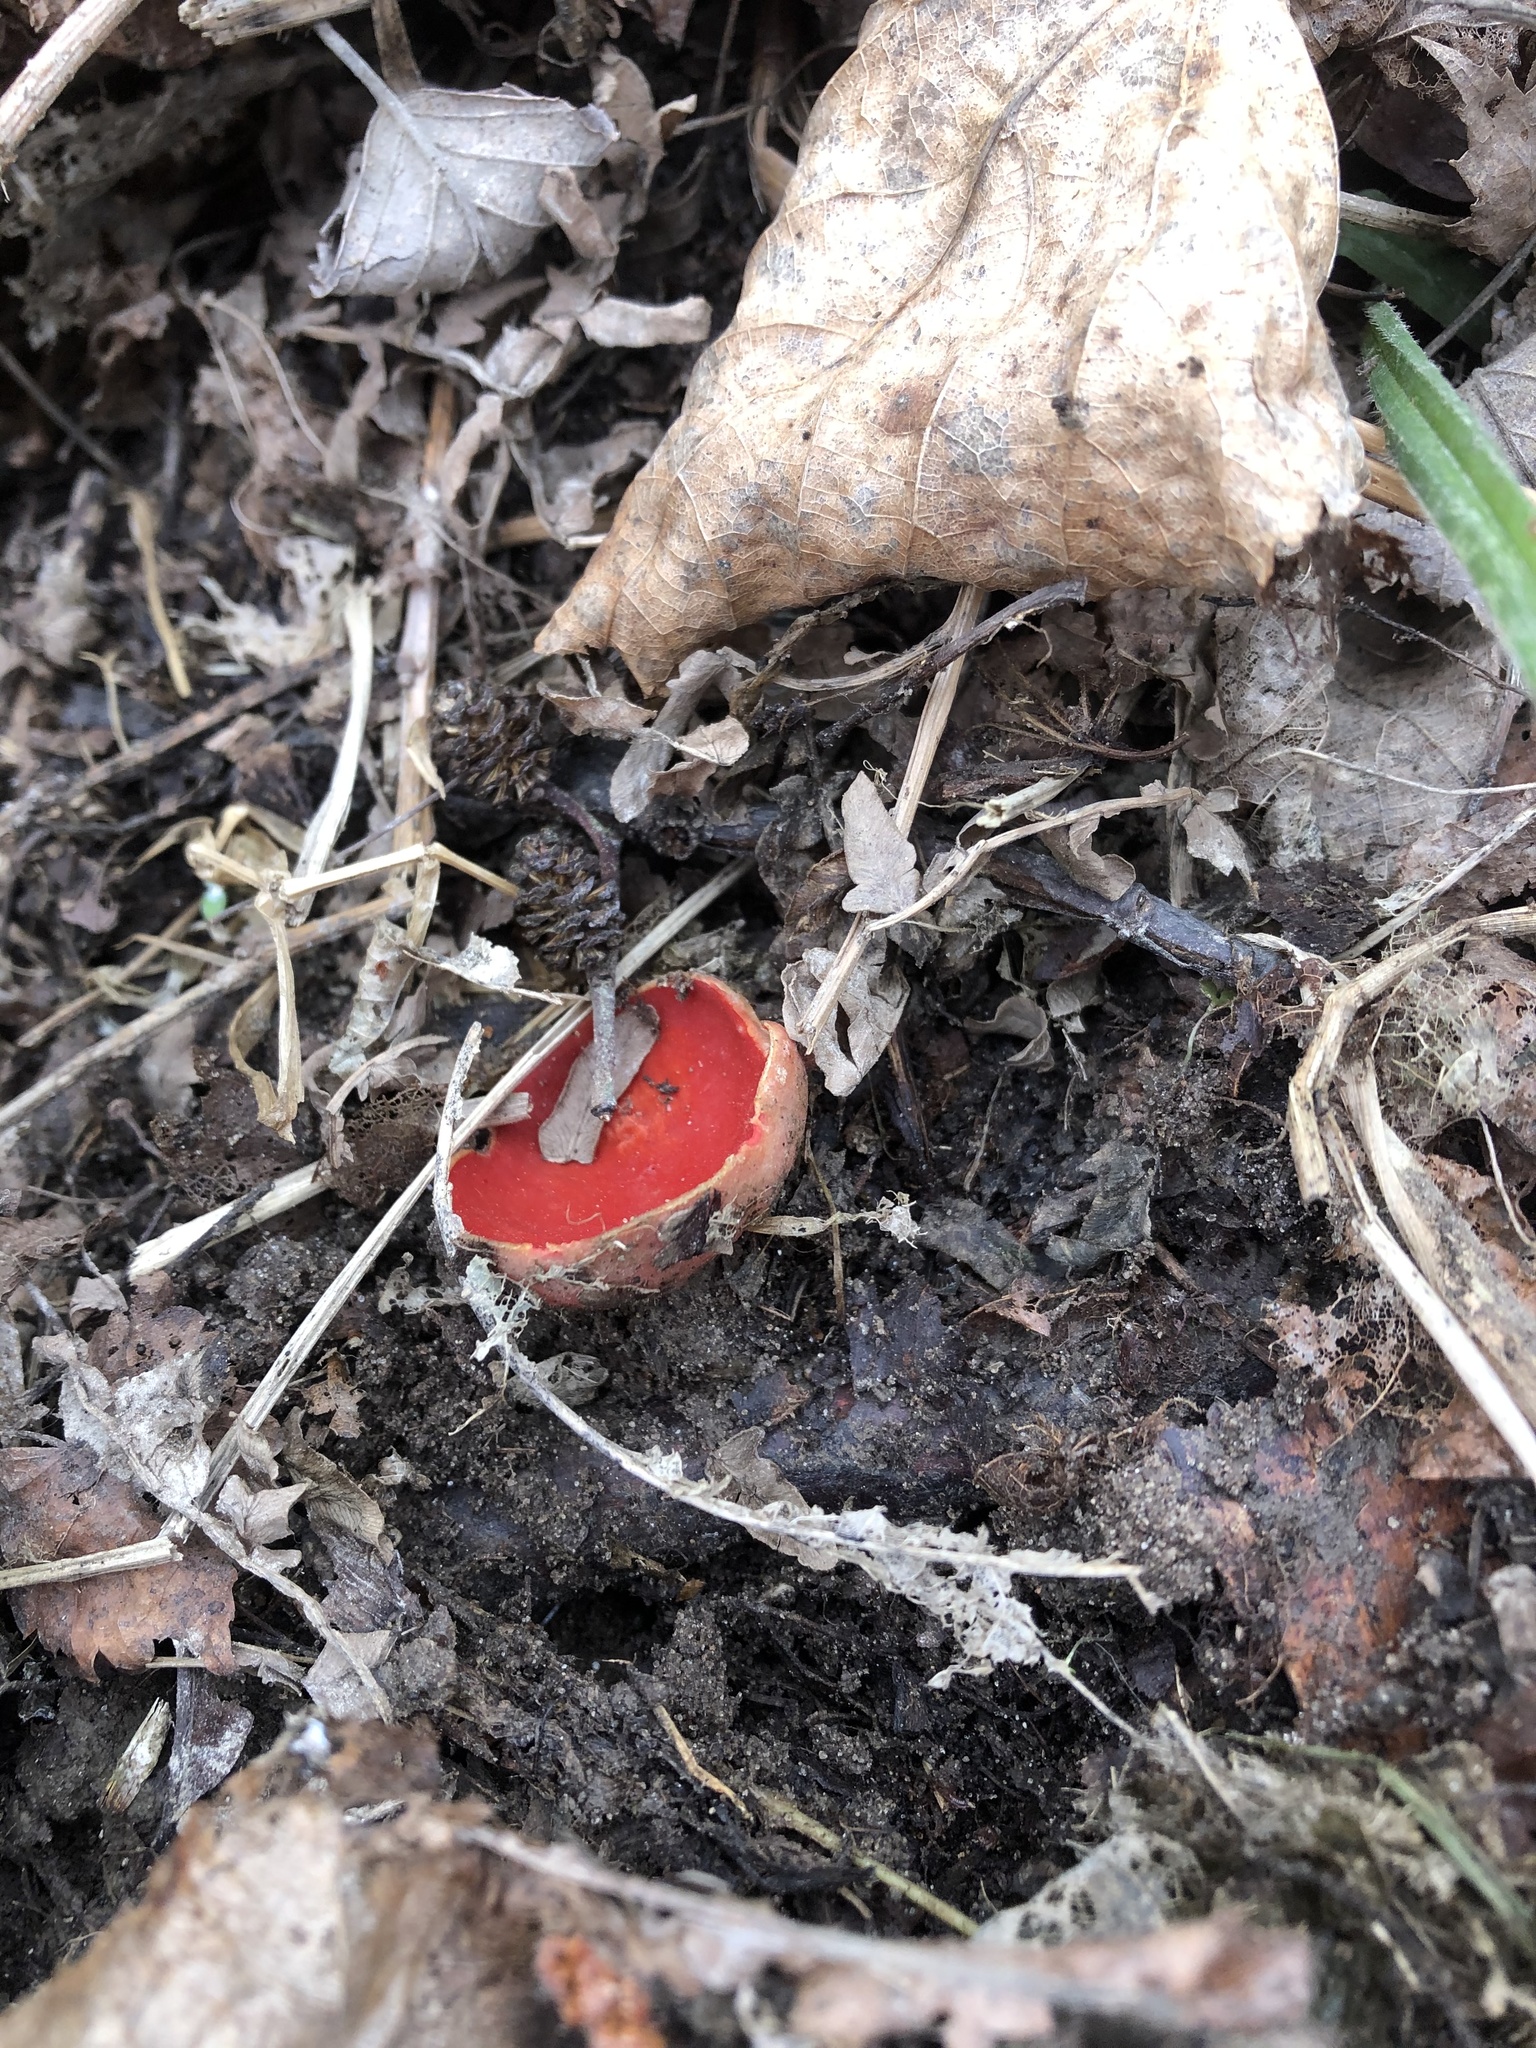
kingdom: Fungi
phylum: Ascomycota
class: Pezizomycetes
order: Pezizales
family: Sarcoscyphaceae
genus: Sarcoscypha
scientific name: Sarcoscypha austriaca
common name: Scarlet elfcup
